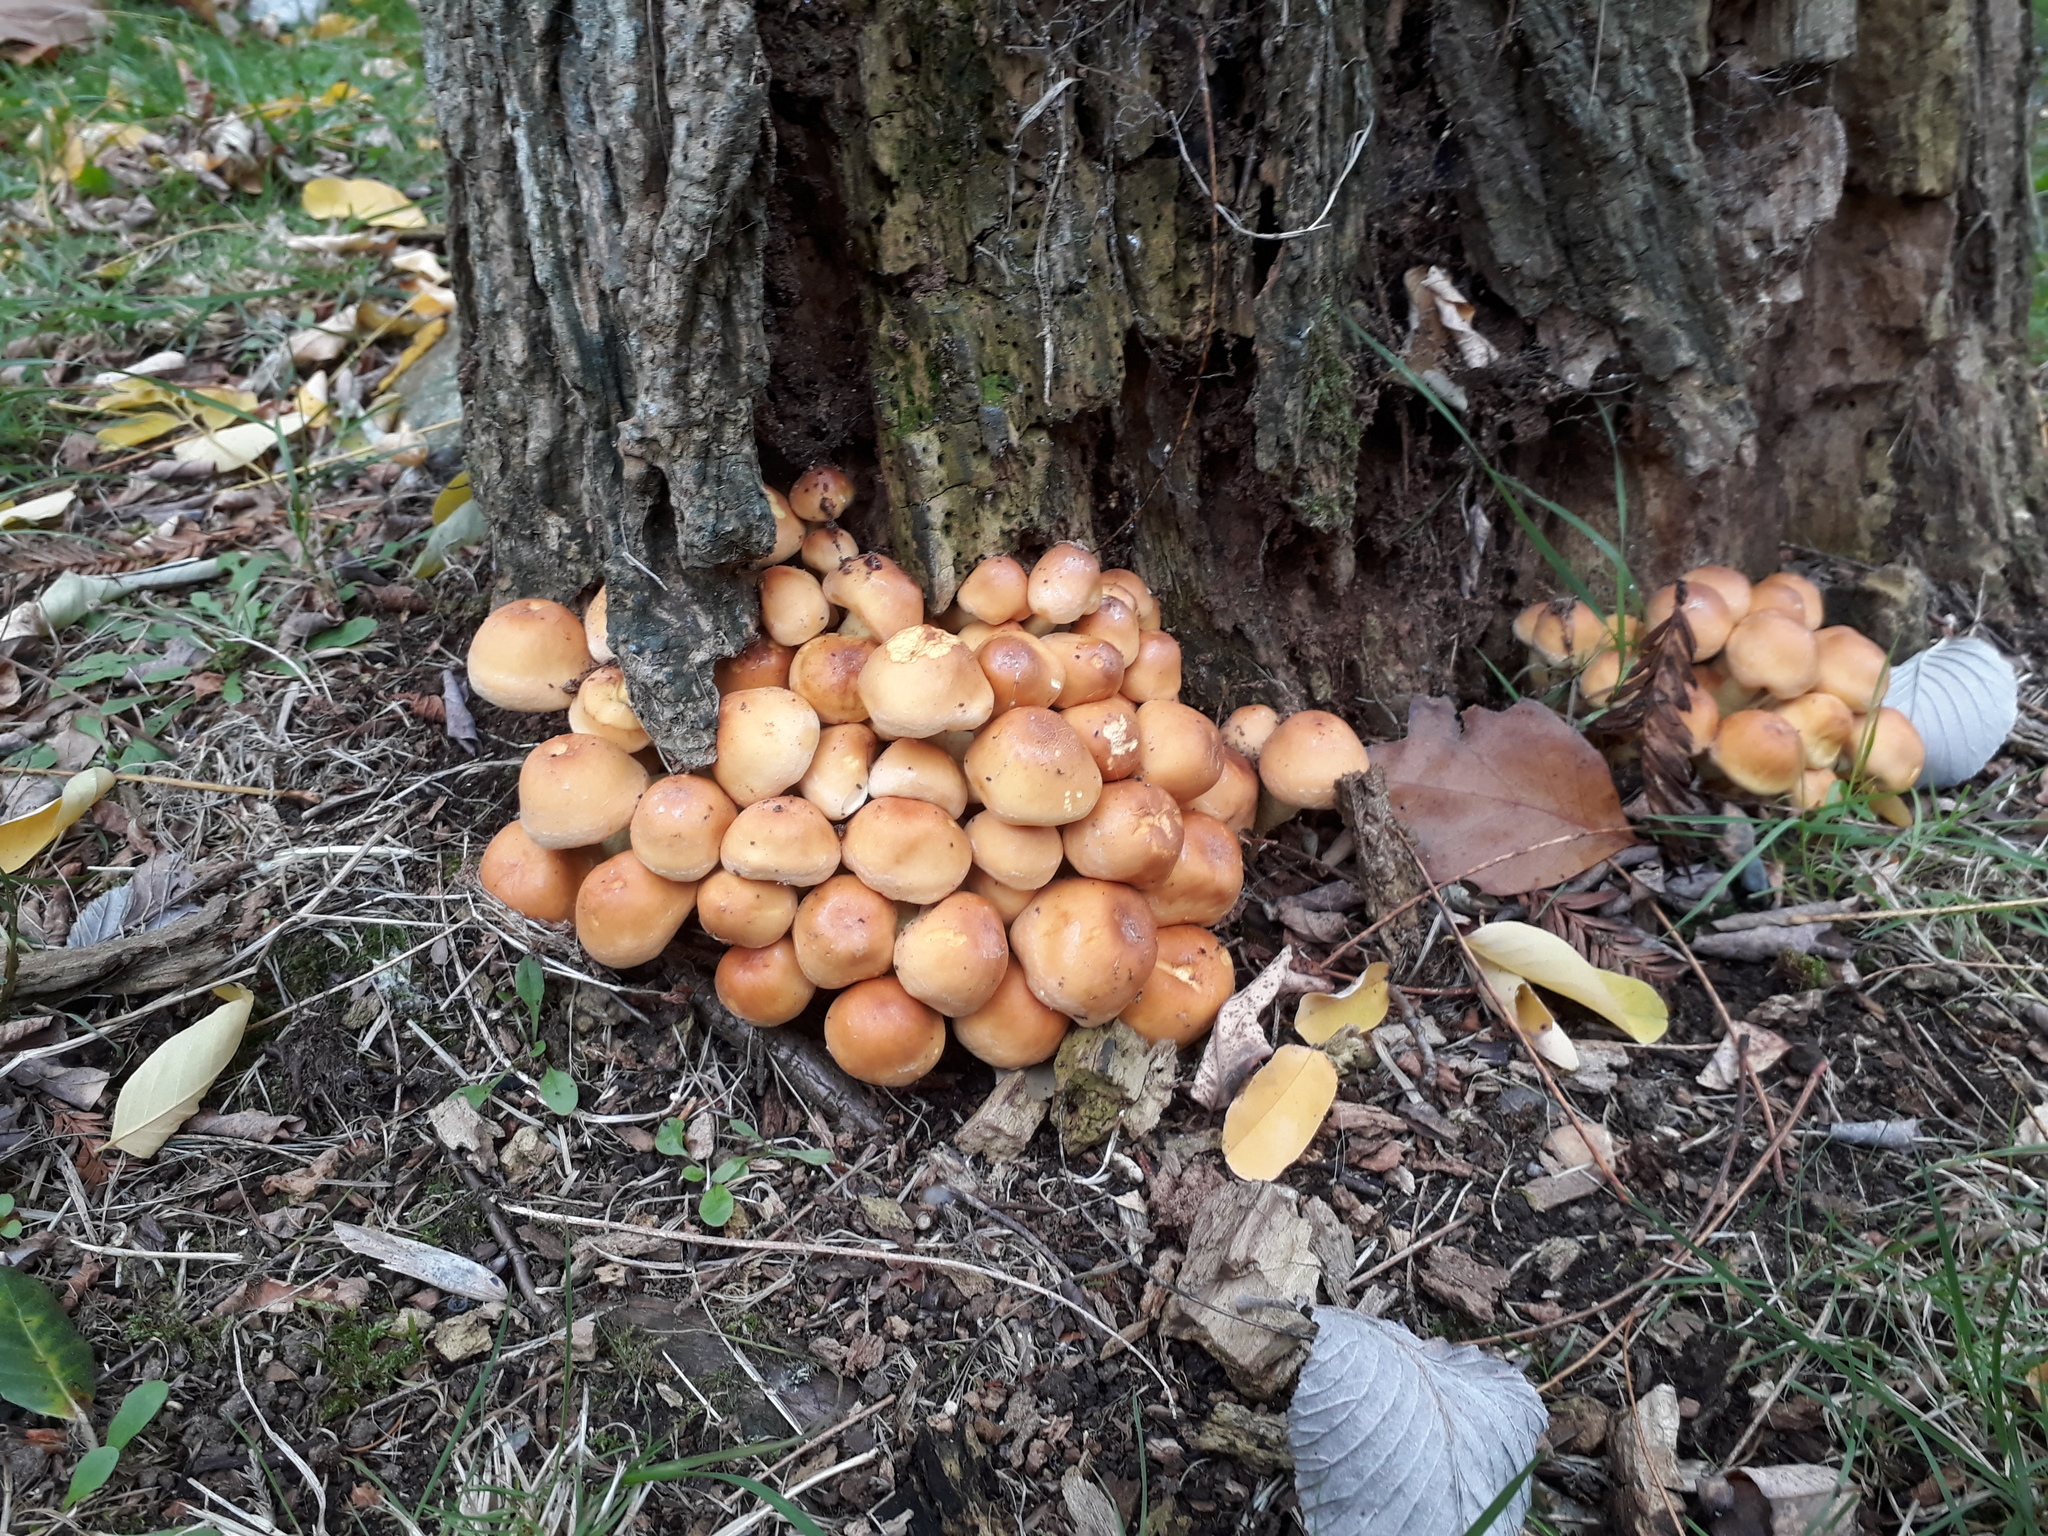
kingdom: Fungi
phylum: Basidiomycota
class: Agaricomycetes
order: Agaricales
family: Strophariaceae
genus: Hypholoma
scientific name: Hypholoma fasciculare
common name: Sulphur tuft
